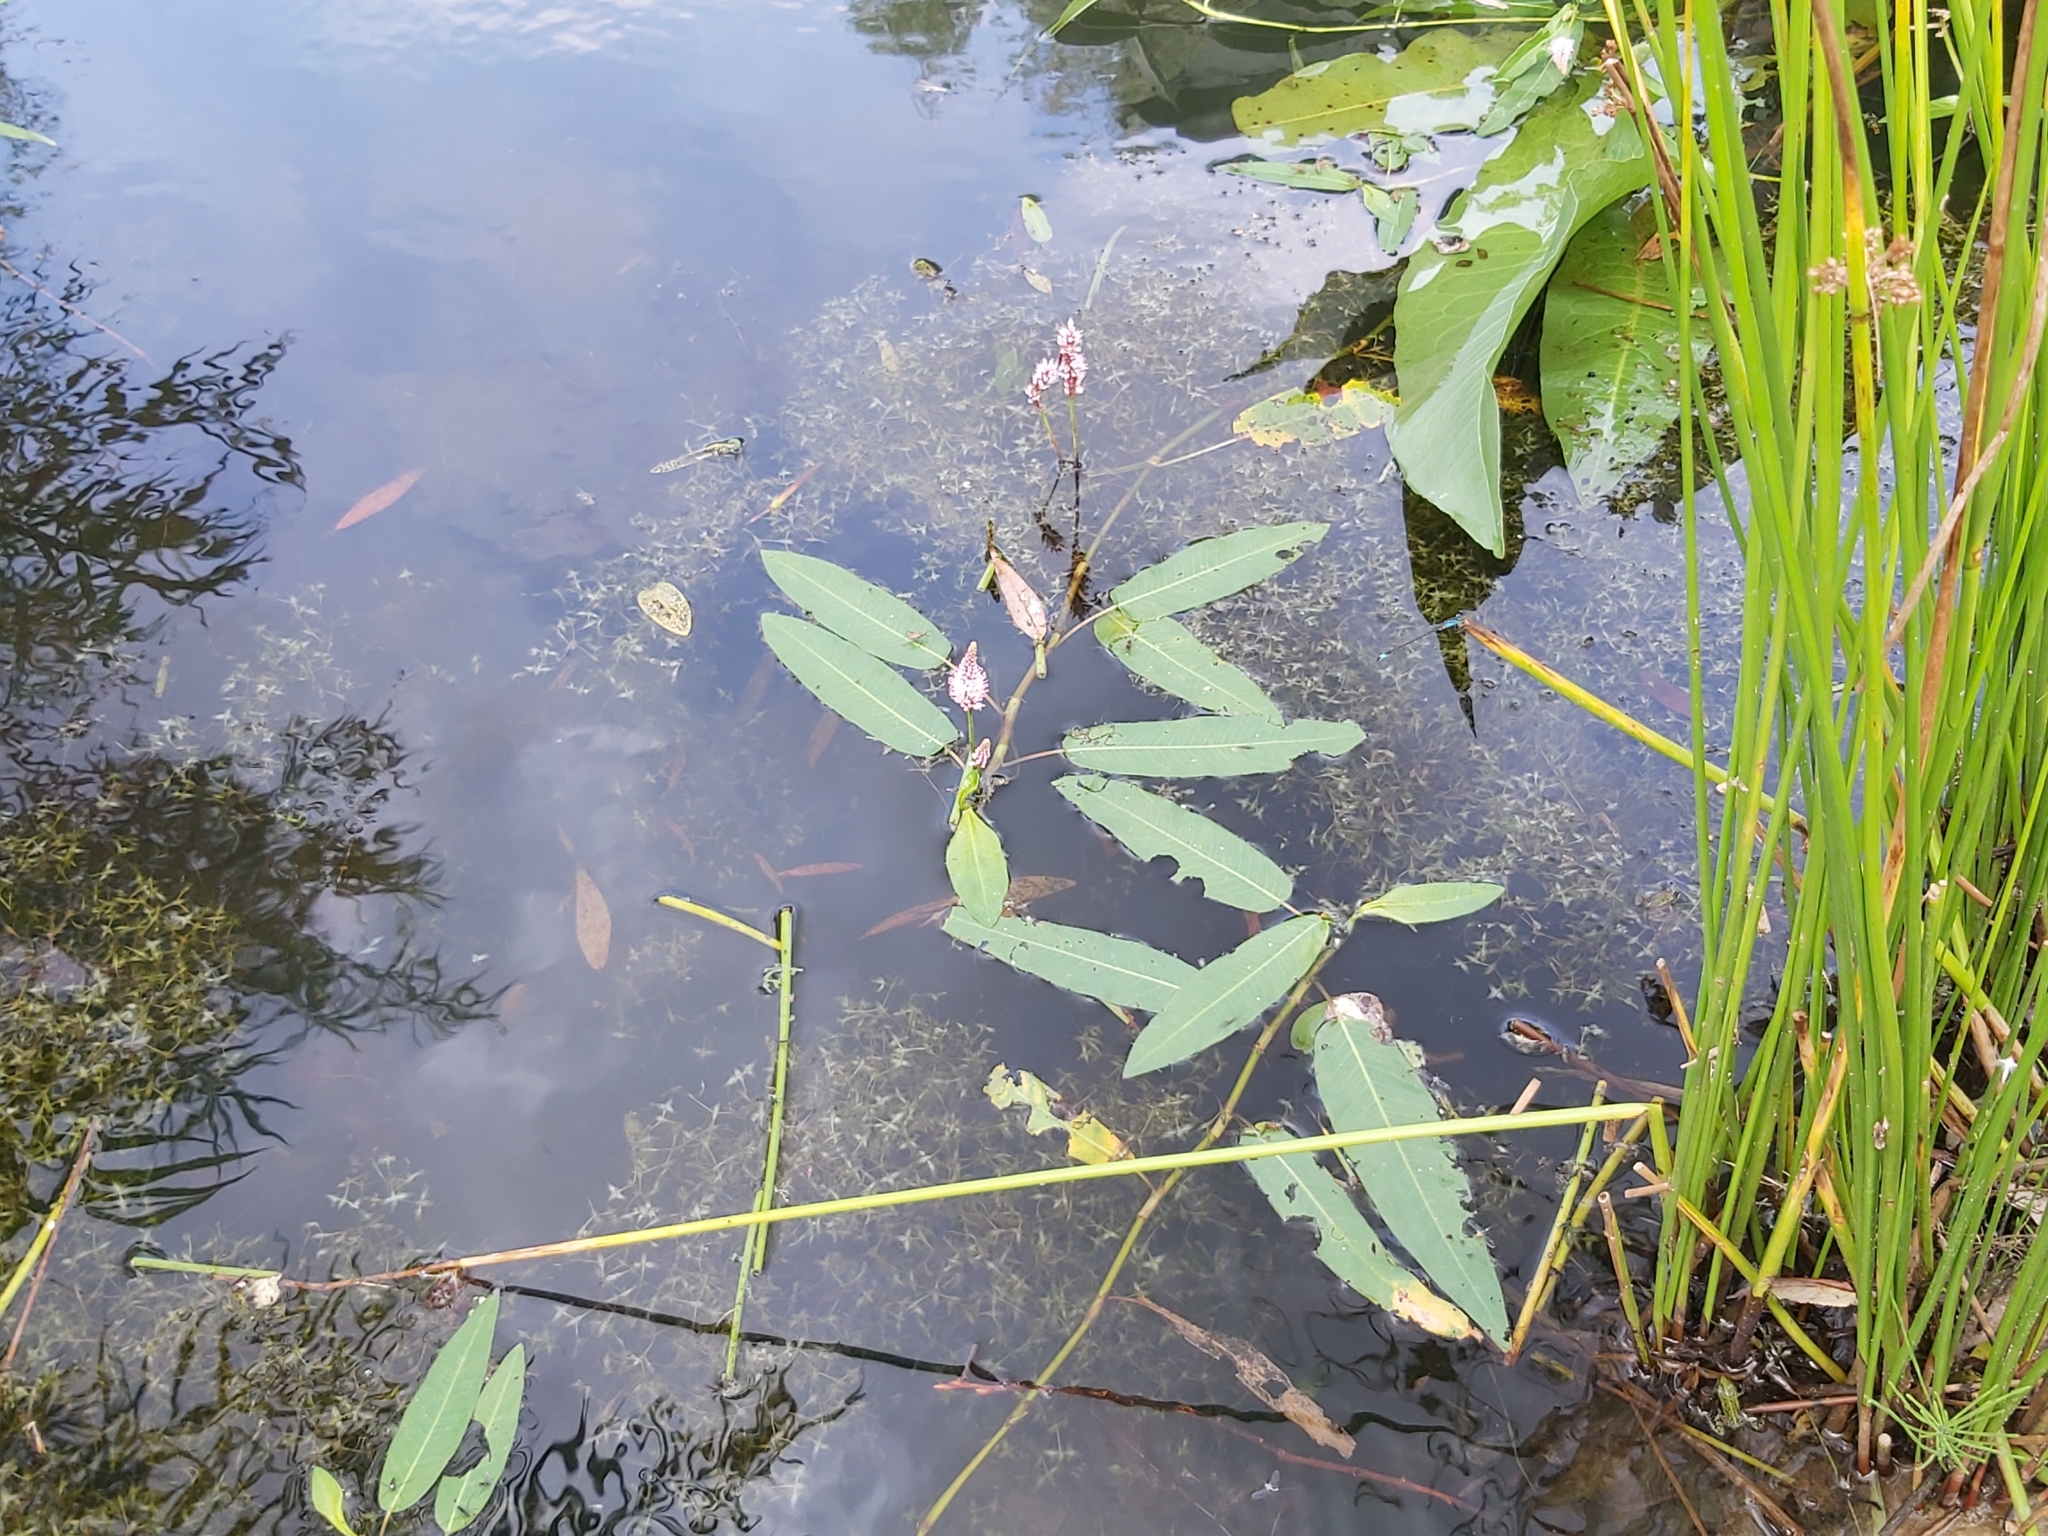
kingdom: Plantae
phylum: Tracheophyta
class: Magnoliopsida
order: Caryophyllales
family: Polygonaceae
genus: Persicaria
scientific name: Persicaria amphibia
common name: Amphibious bistort
